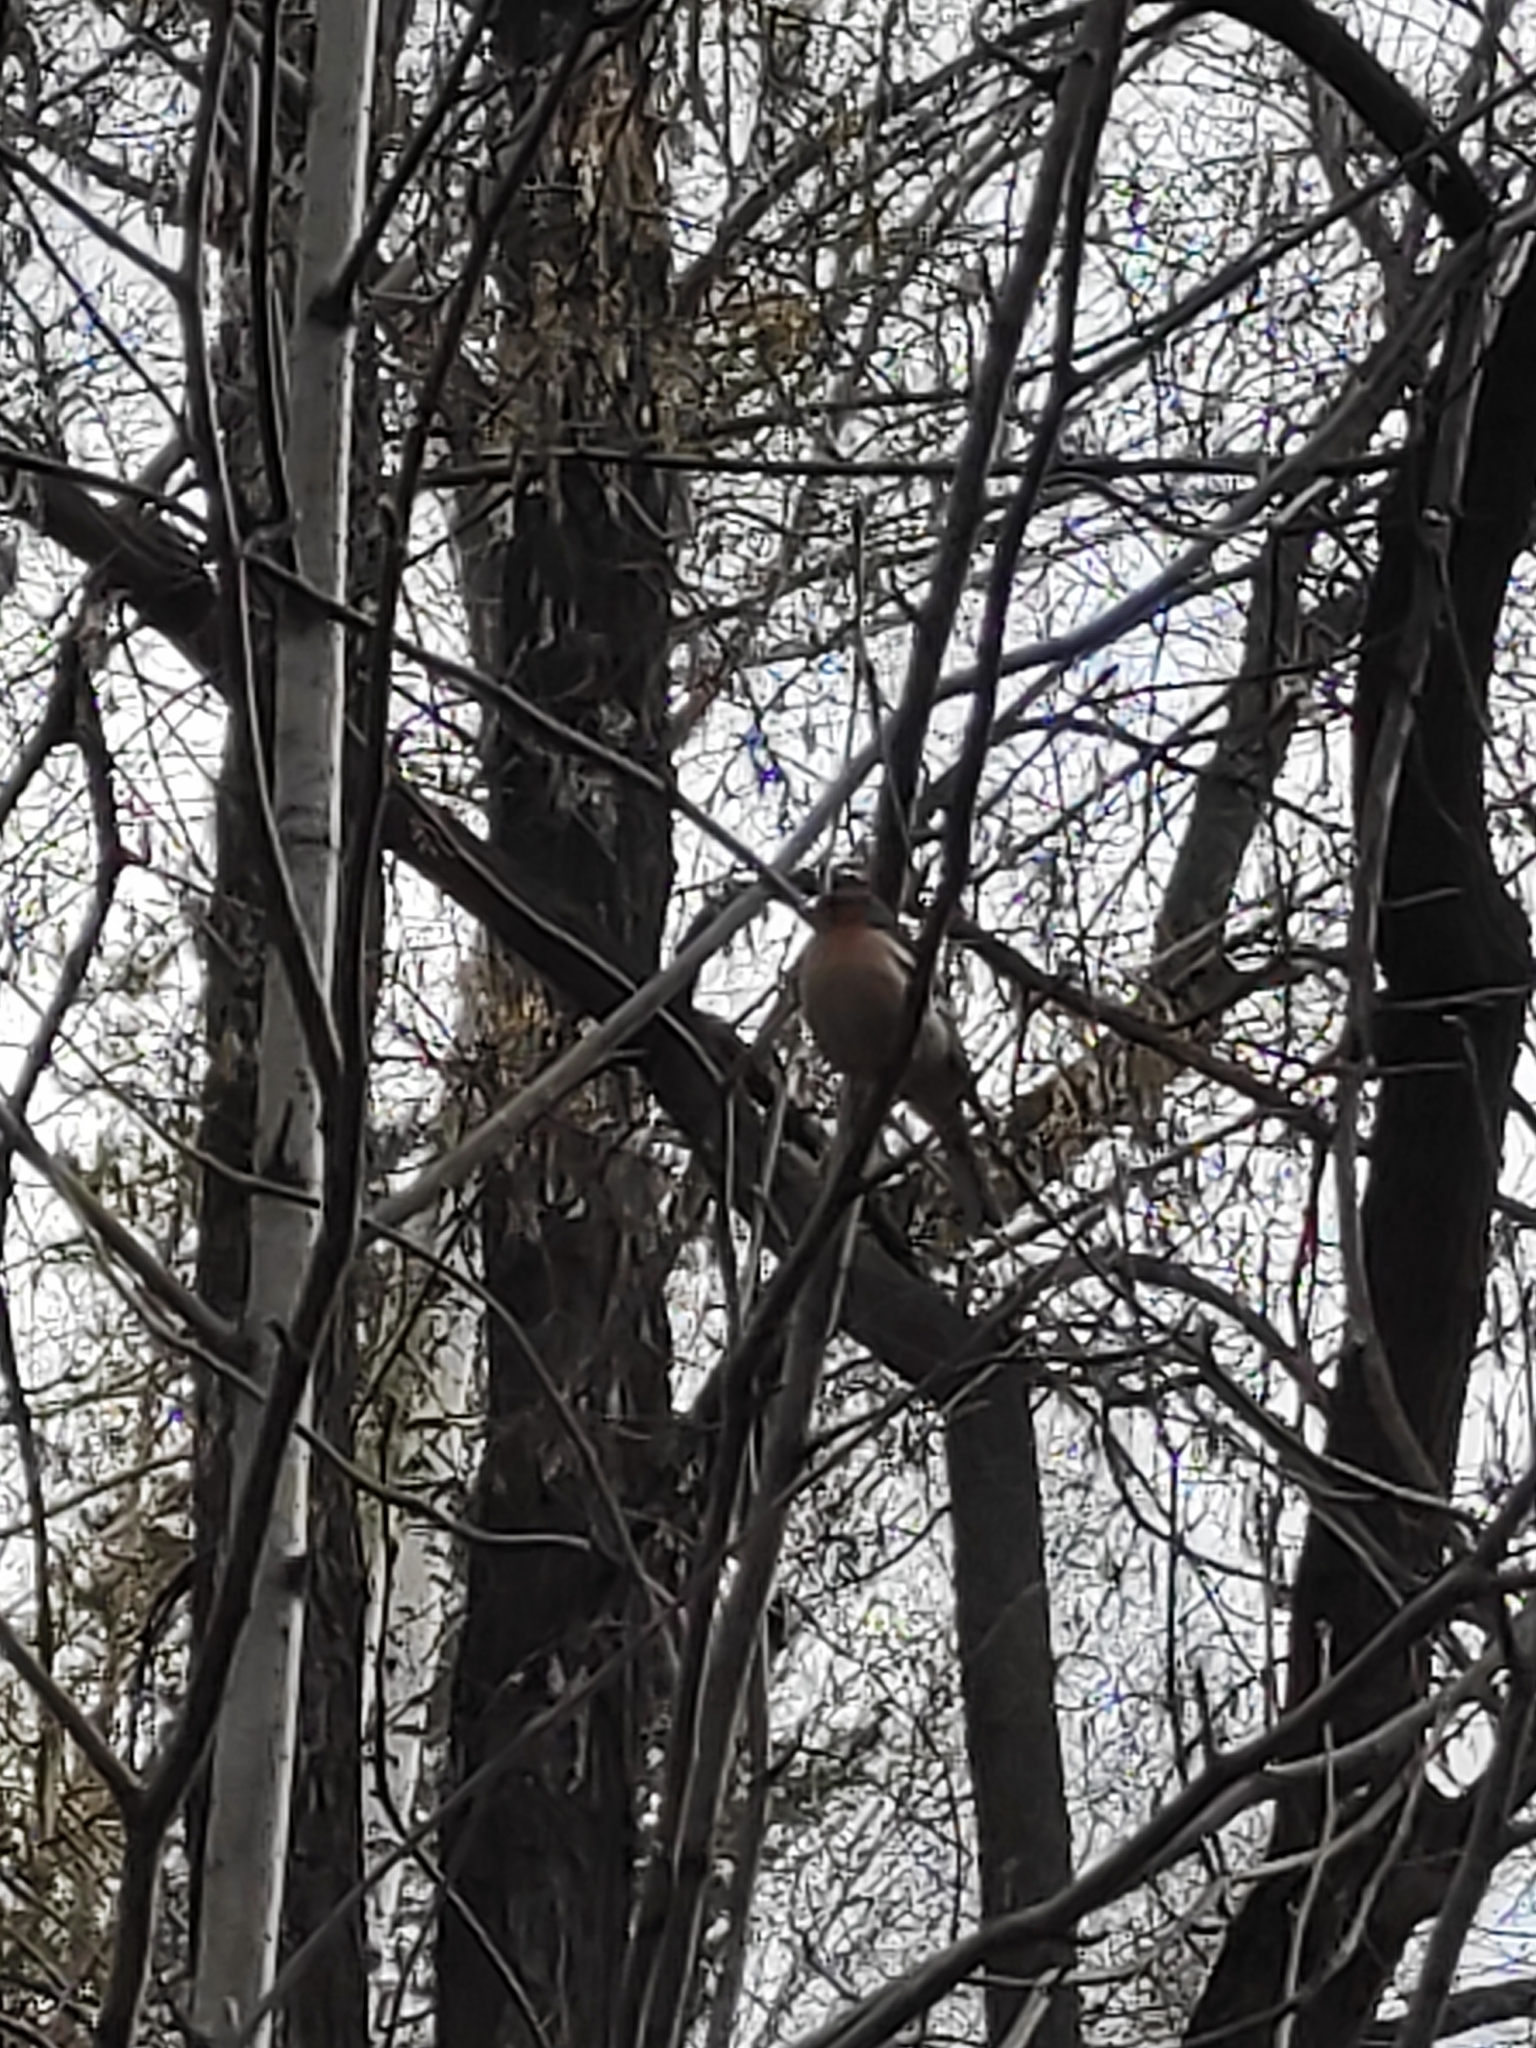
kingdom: Animalia
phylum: Chordata
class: Aves
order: Passeriformes
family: Fringillidae
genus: Fringilla
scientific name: Fringilla coelebs
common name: Common chaffinch
